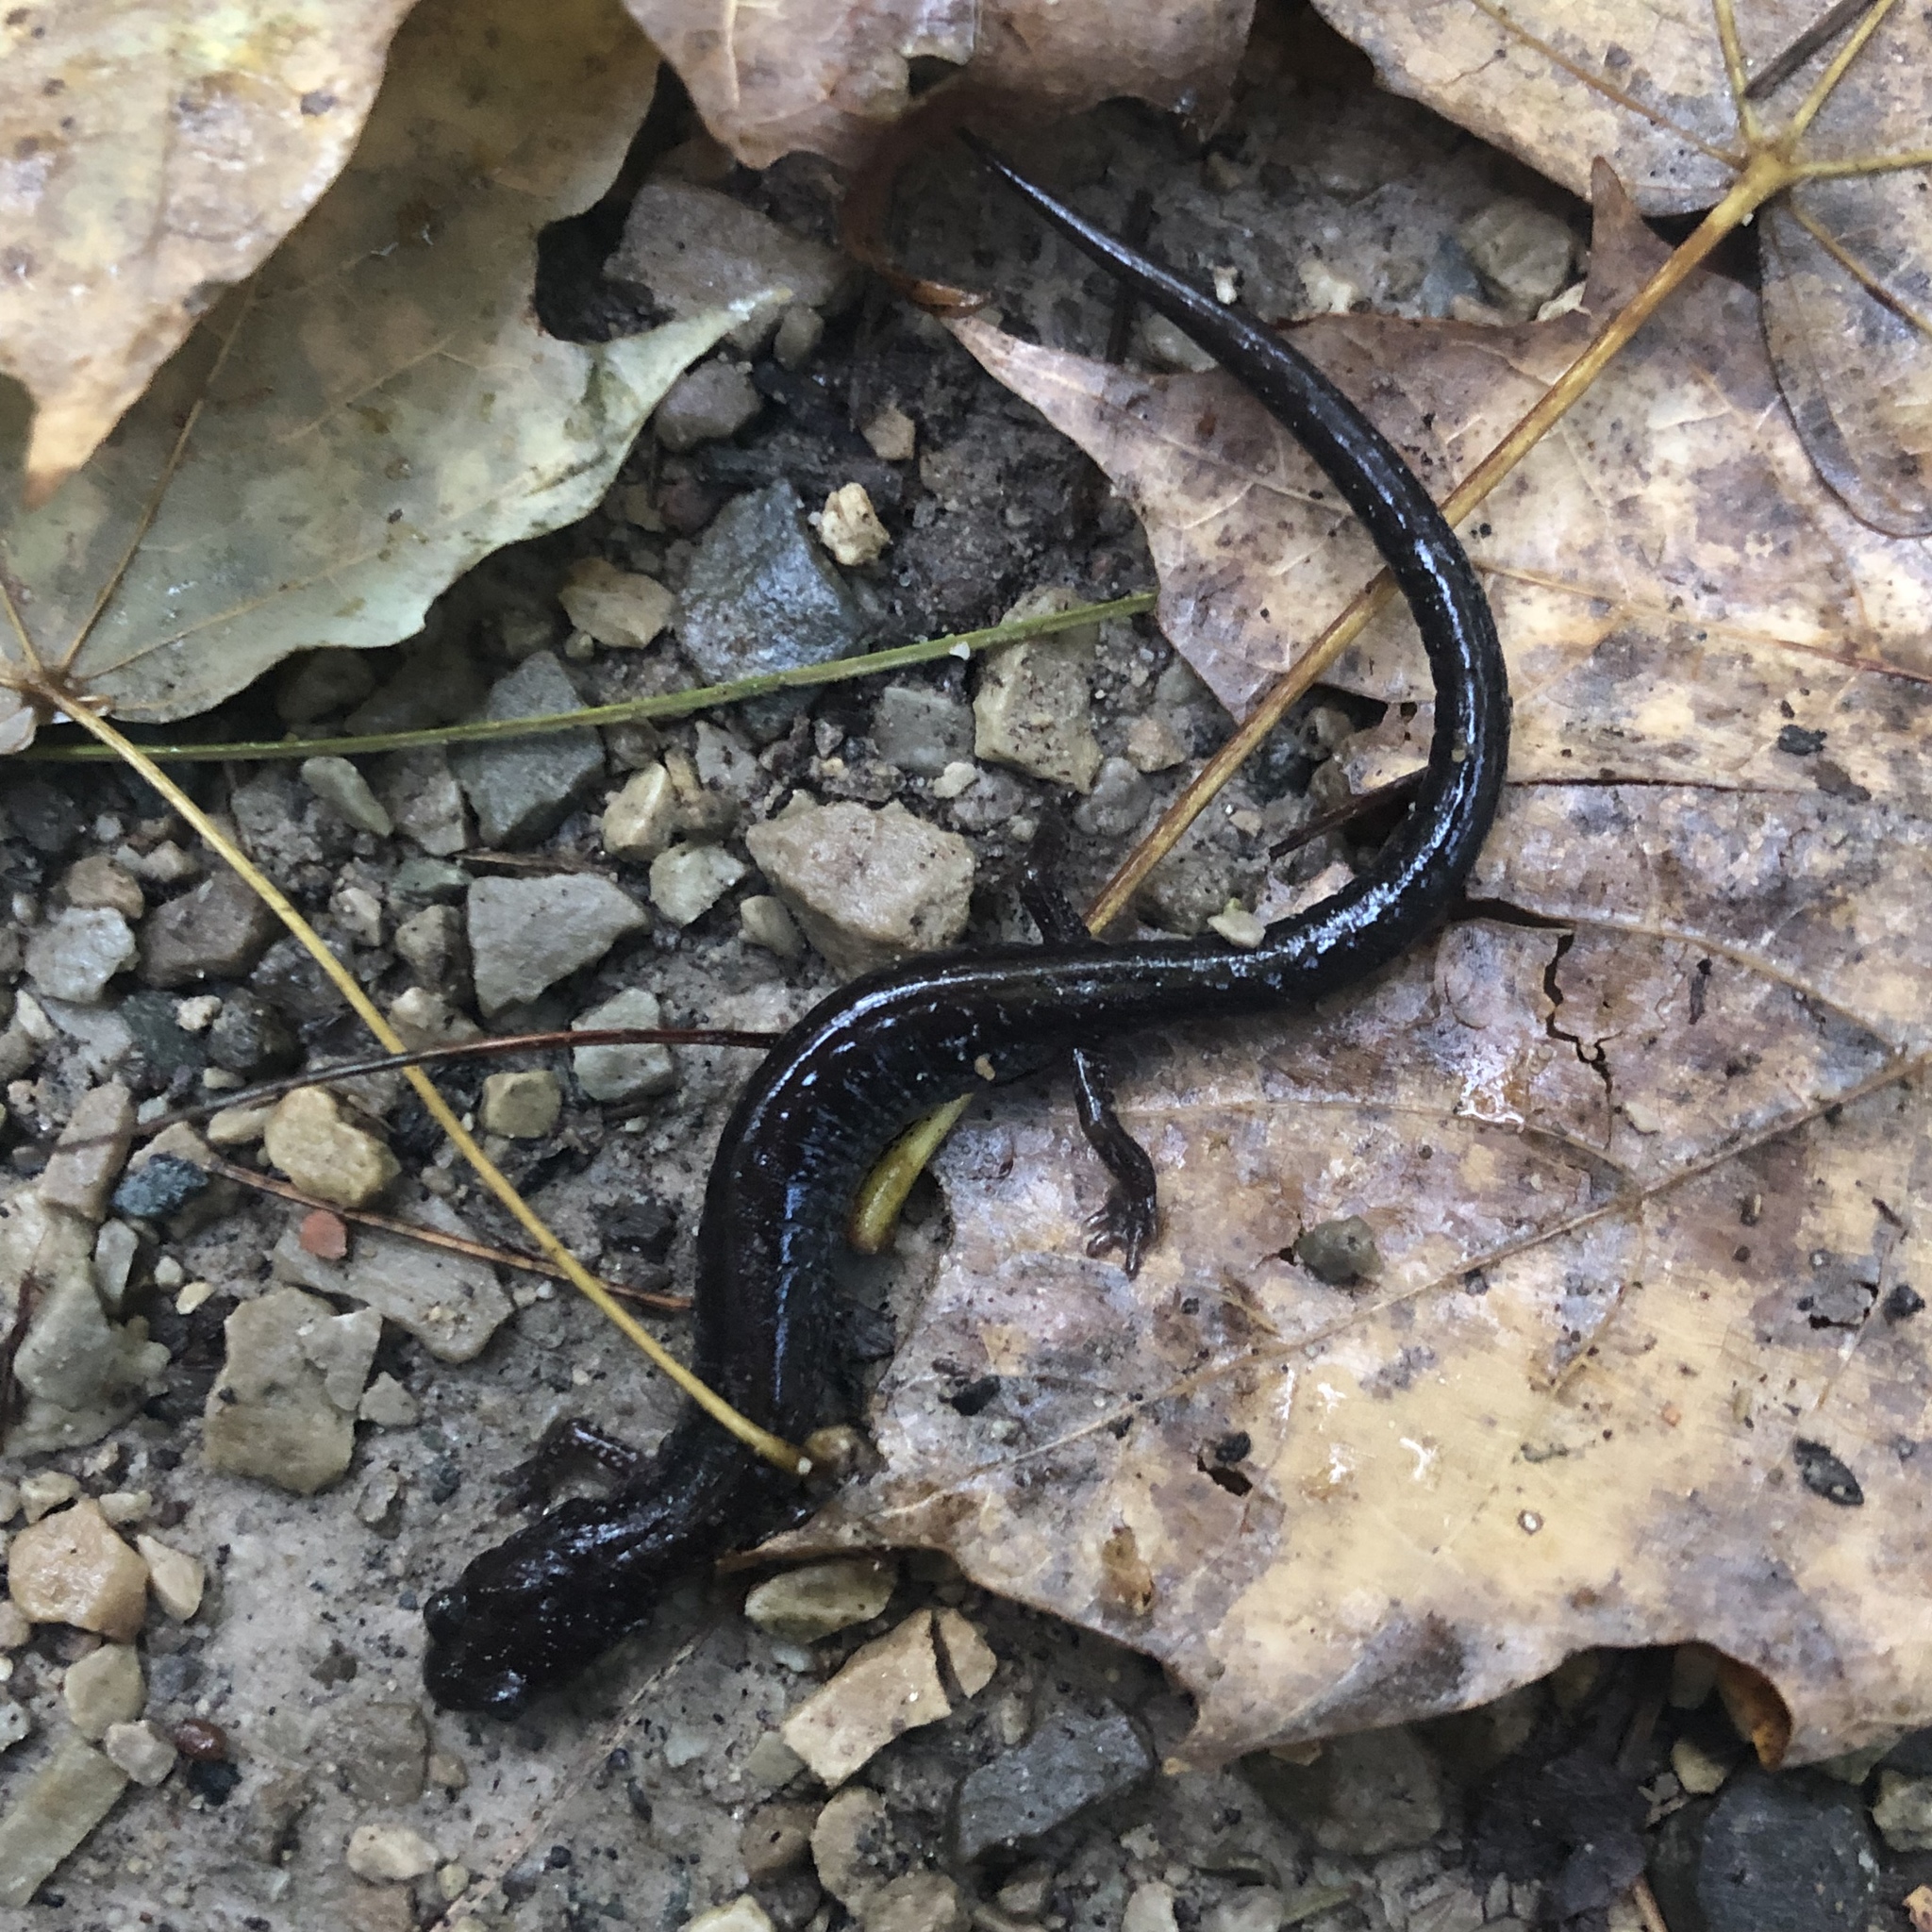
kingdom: Animalia
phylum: Chordata
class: Amphibia
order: Caudata
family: Plethodontidae
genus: Plethodon
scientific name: Plethodon cinereus
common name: Redback salamander
